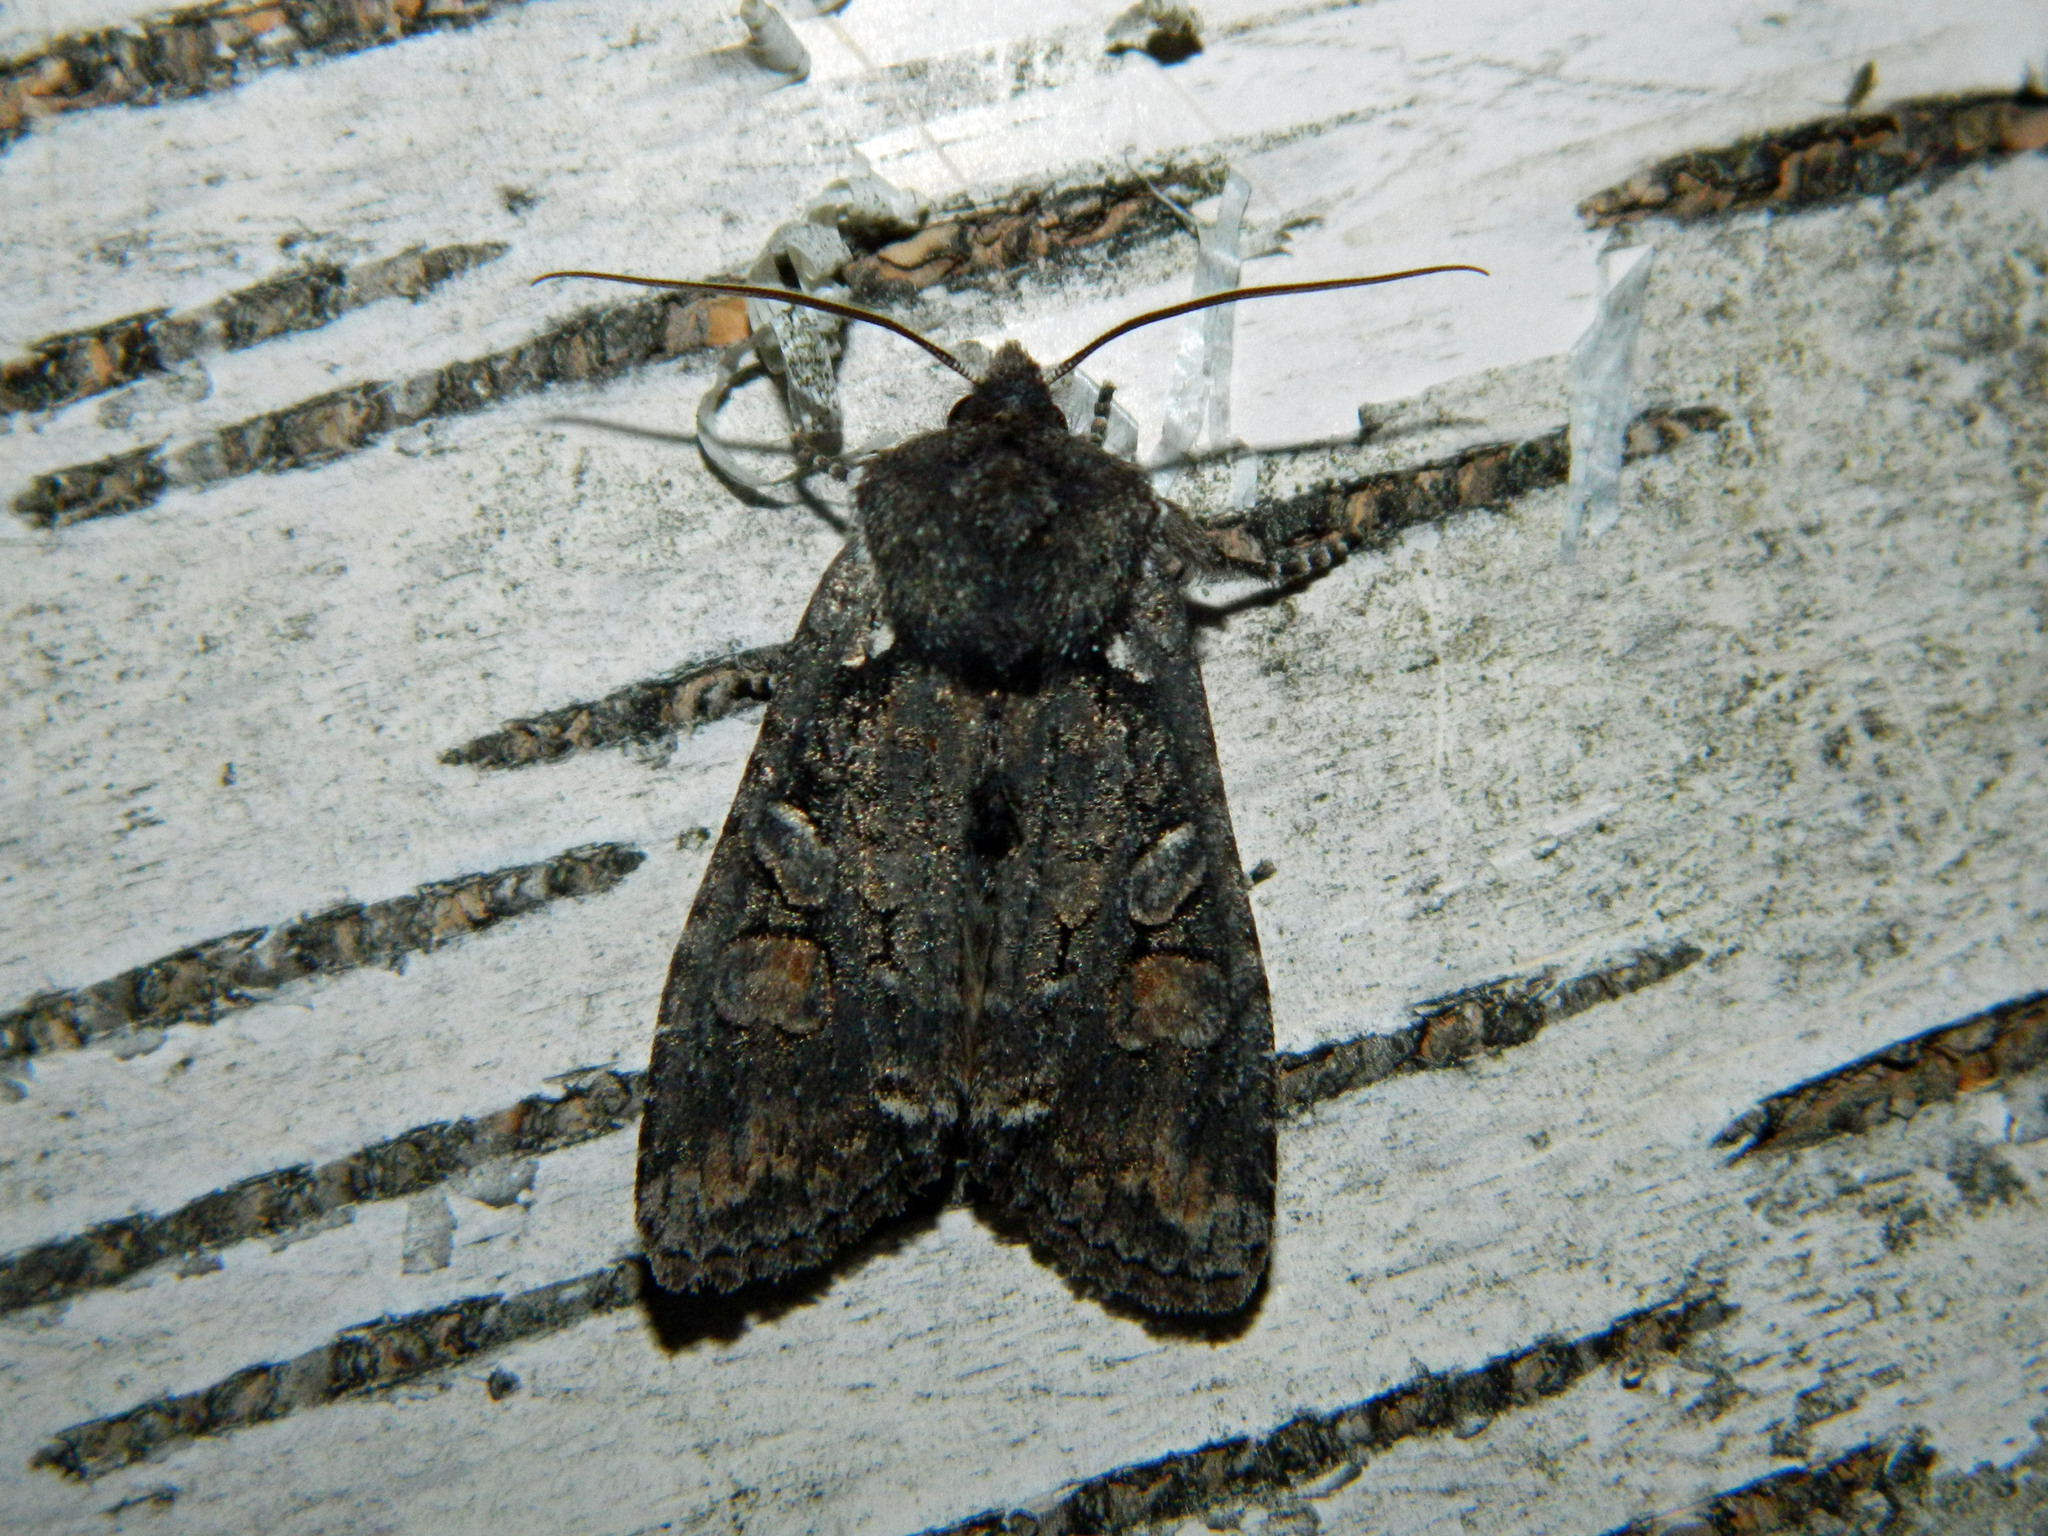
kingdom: Animalia
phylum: Arthropoda
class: Insecta
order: Lepidoptera
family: Noctuidae
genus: Lithophane
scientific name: Lithophane pexata
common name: Plush-naped pinion moth
